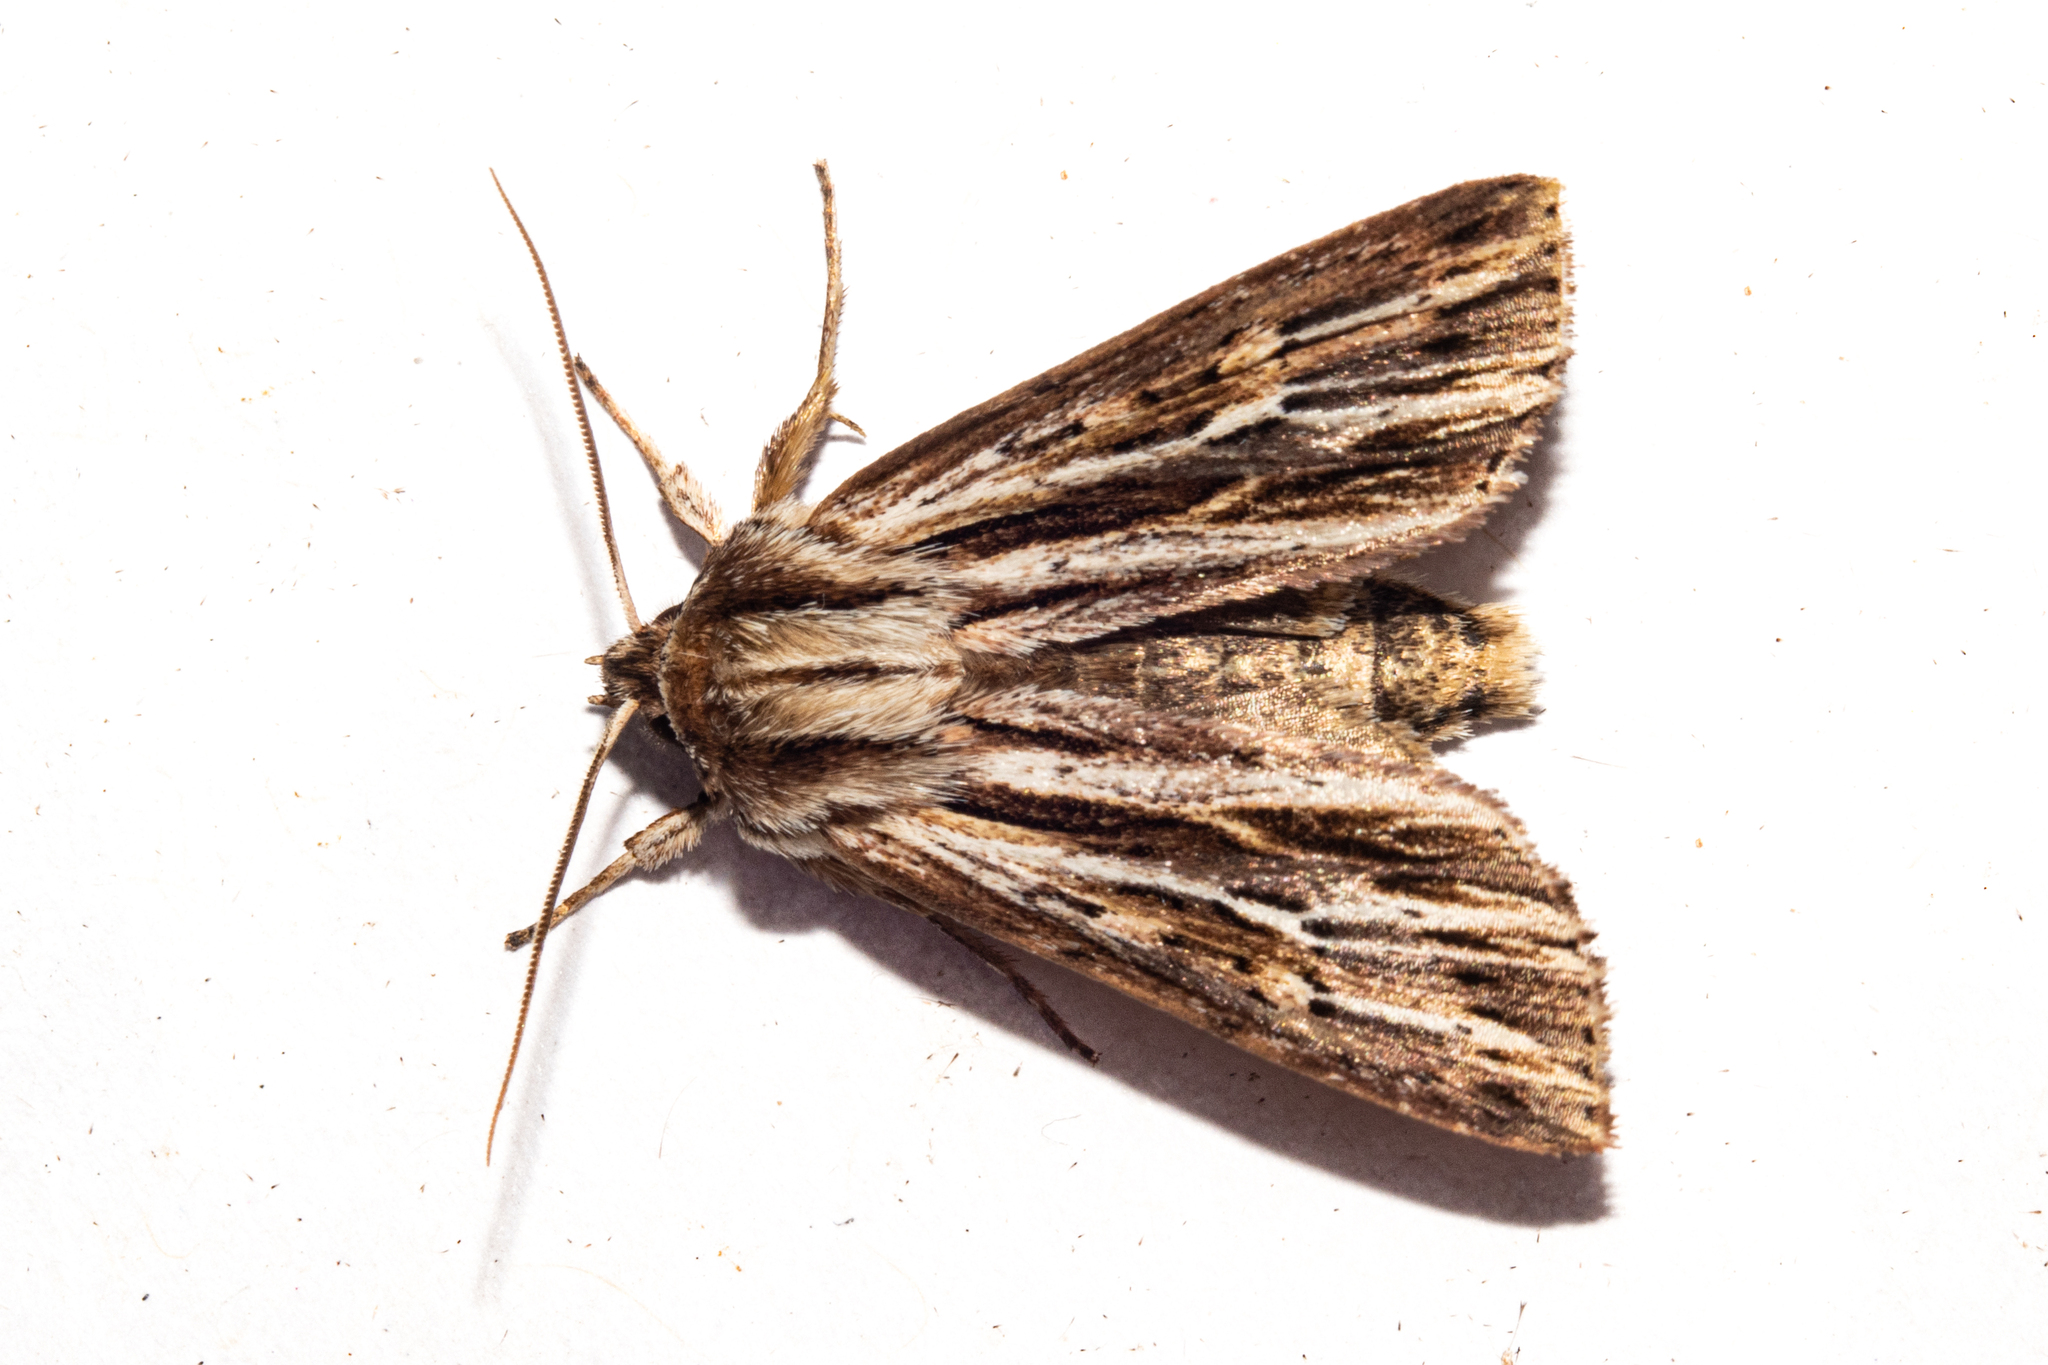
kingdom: Animalia
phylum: Arthropoda
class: Insecta
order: Lepidoptera
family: Noctuidae
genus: Ichneutica
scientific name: Ichneutica
